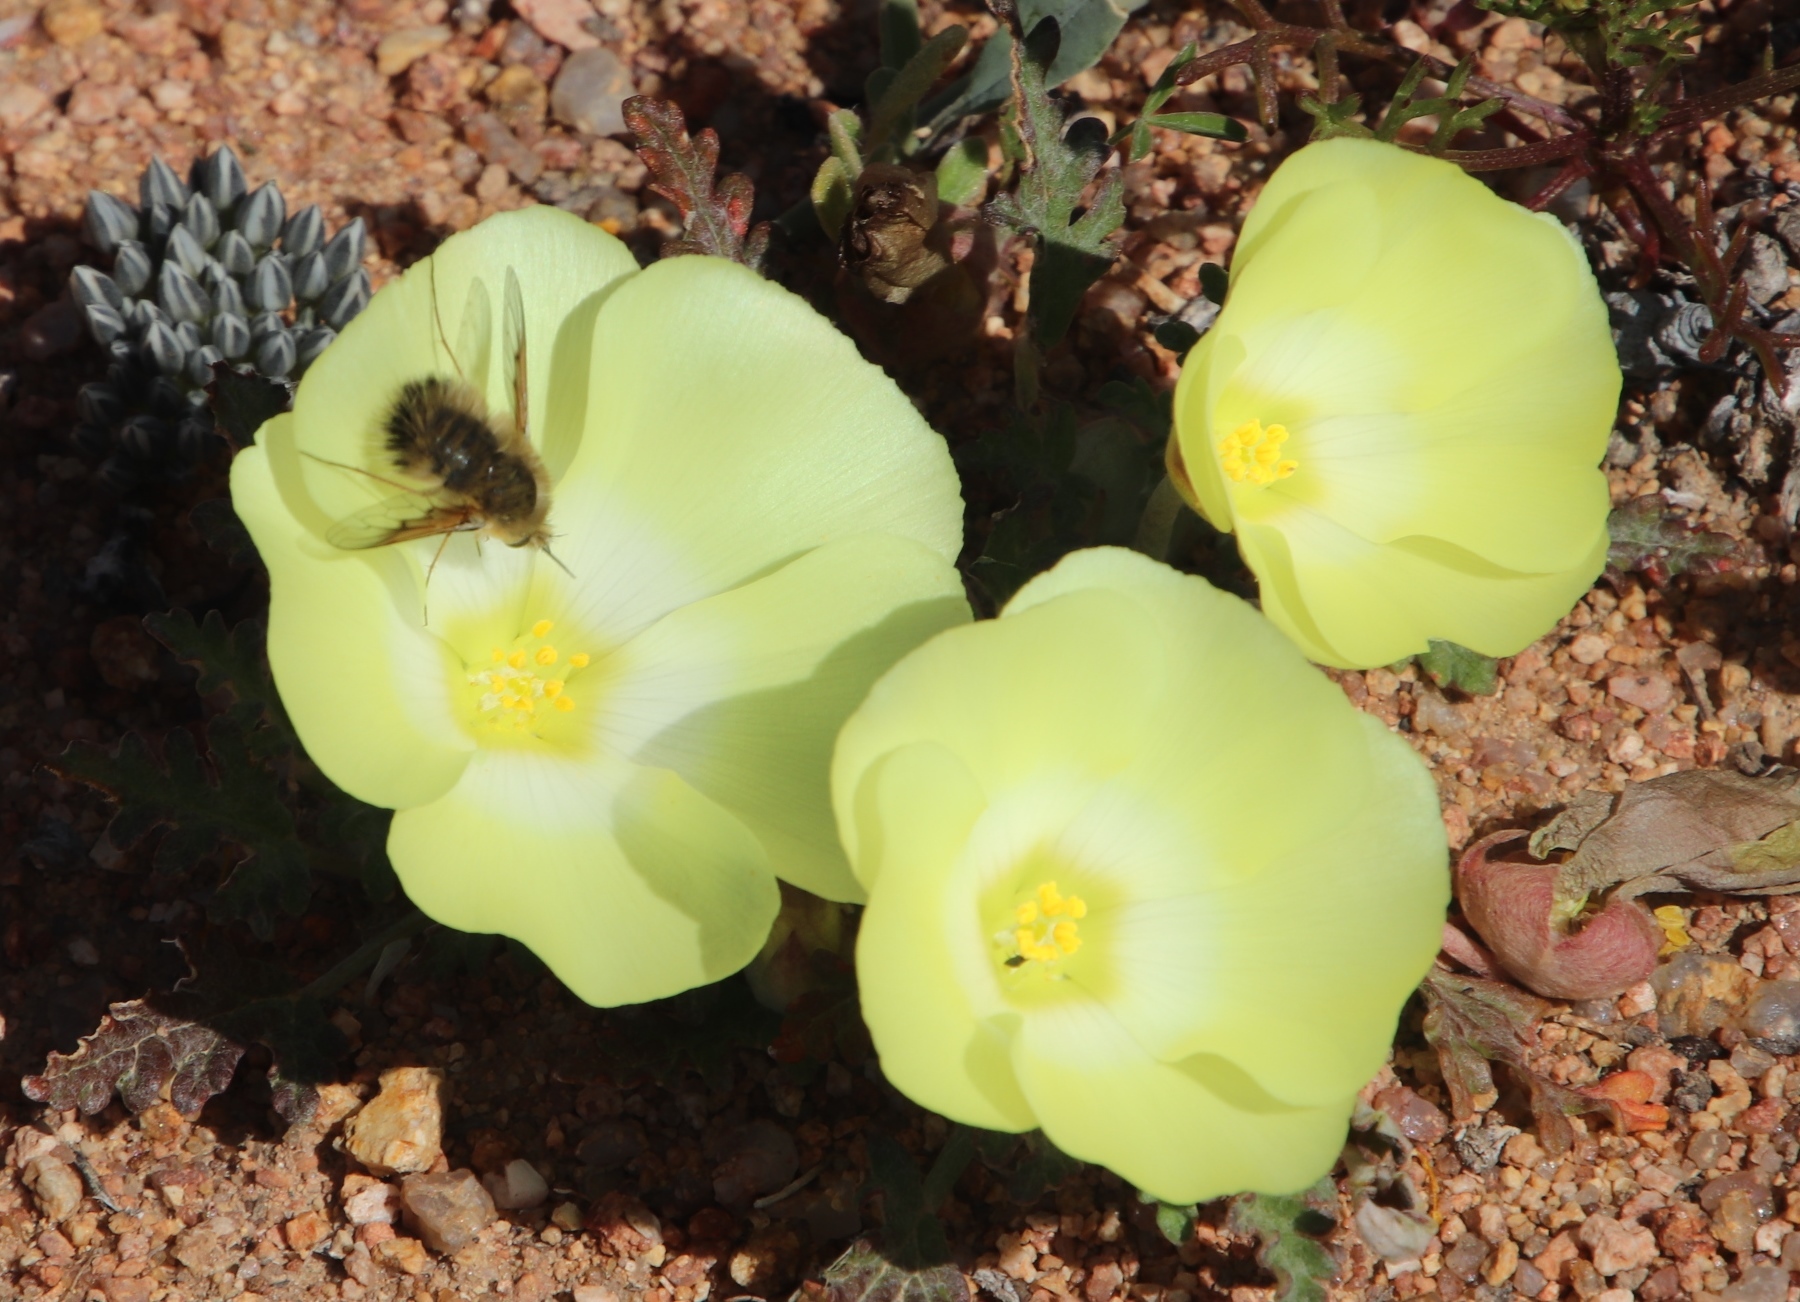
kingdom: Plantae
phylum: Tracheophyta
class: Magnoliopsida
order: Malvales
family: Neuradaceae
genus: Grielum
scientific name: Grielum humifusum
